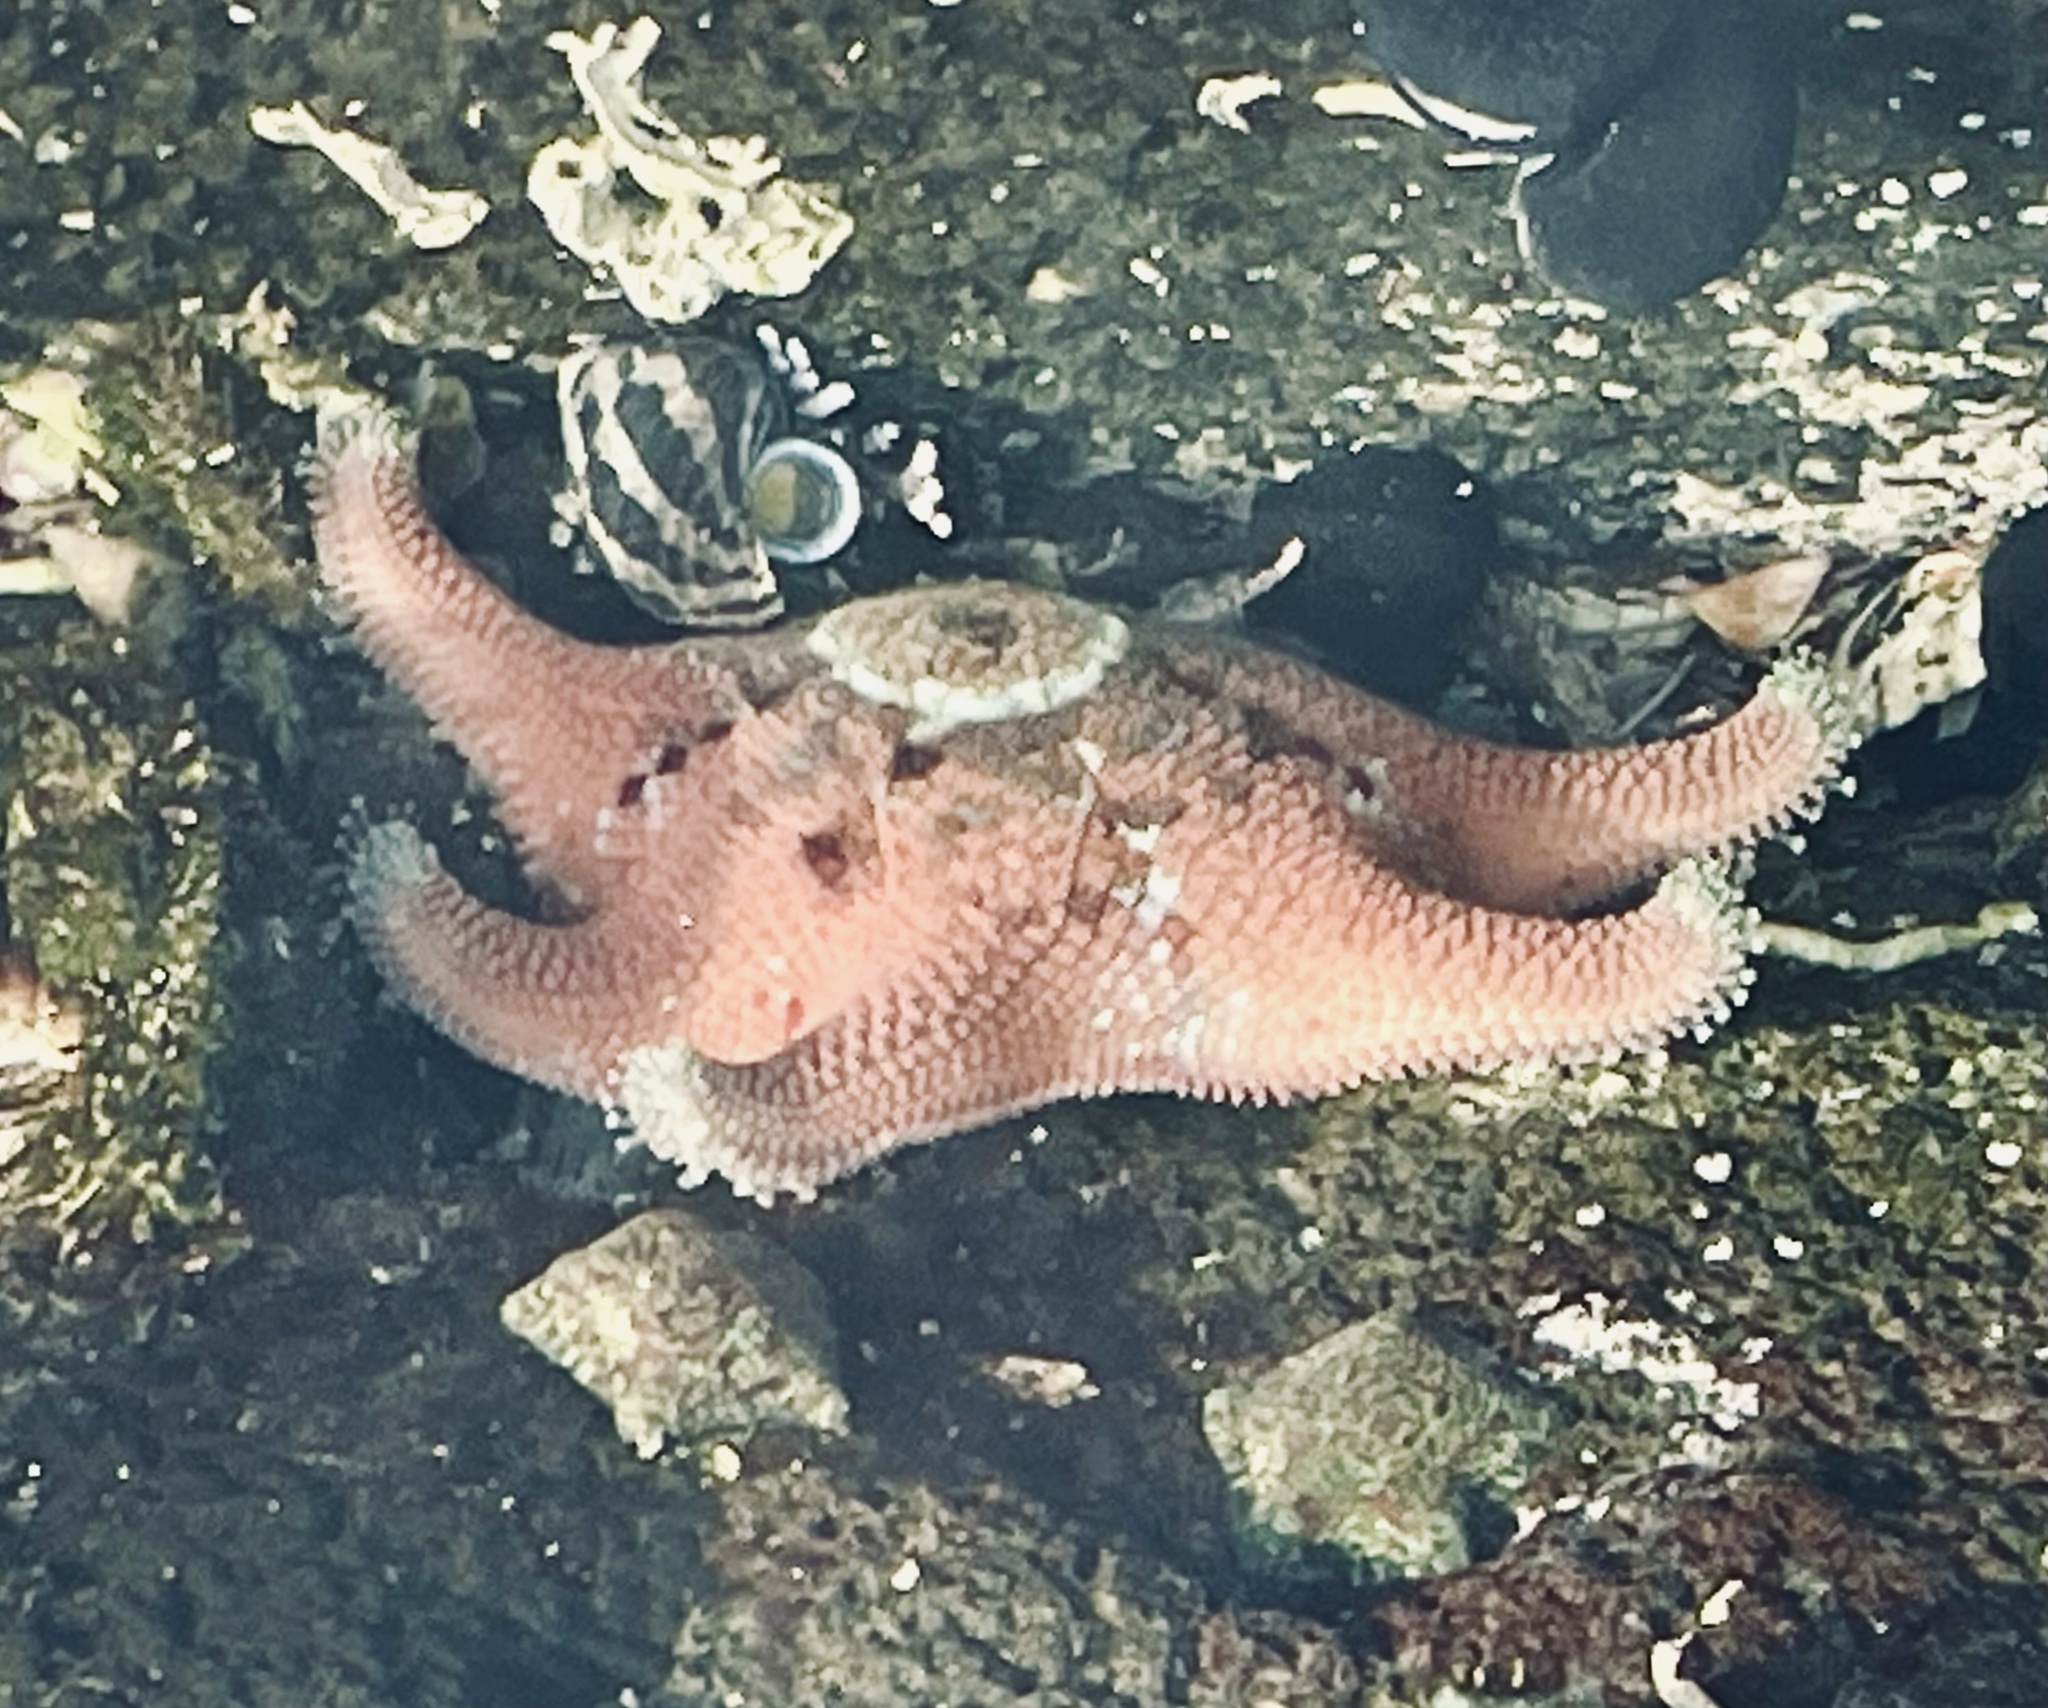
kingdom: Animalia
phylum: Echinodermata
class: Asteroidea
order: Valvatida
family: Asterinidae
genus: Meridiastra
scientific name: Meridiastra calcar
